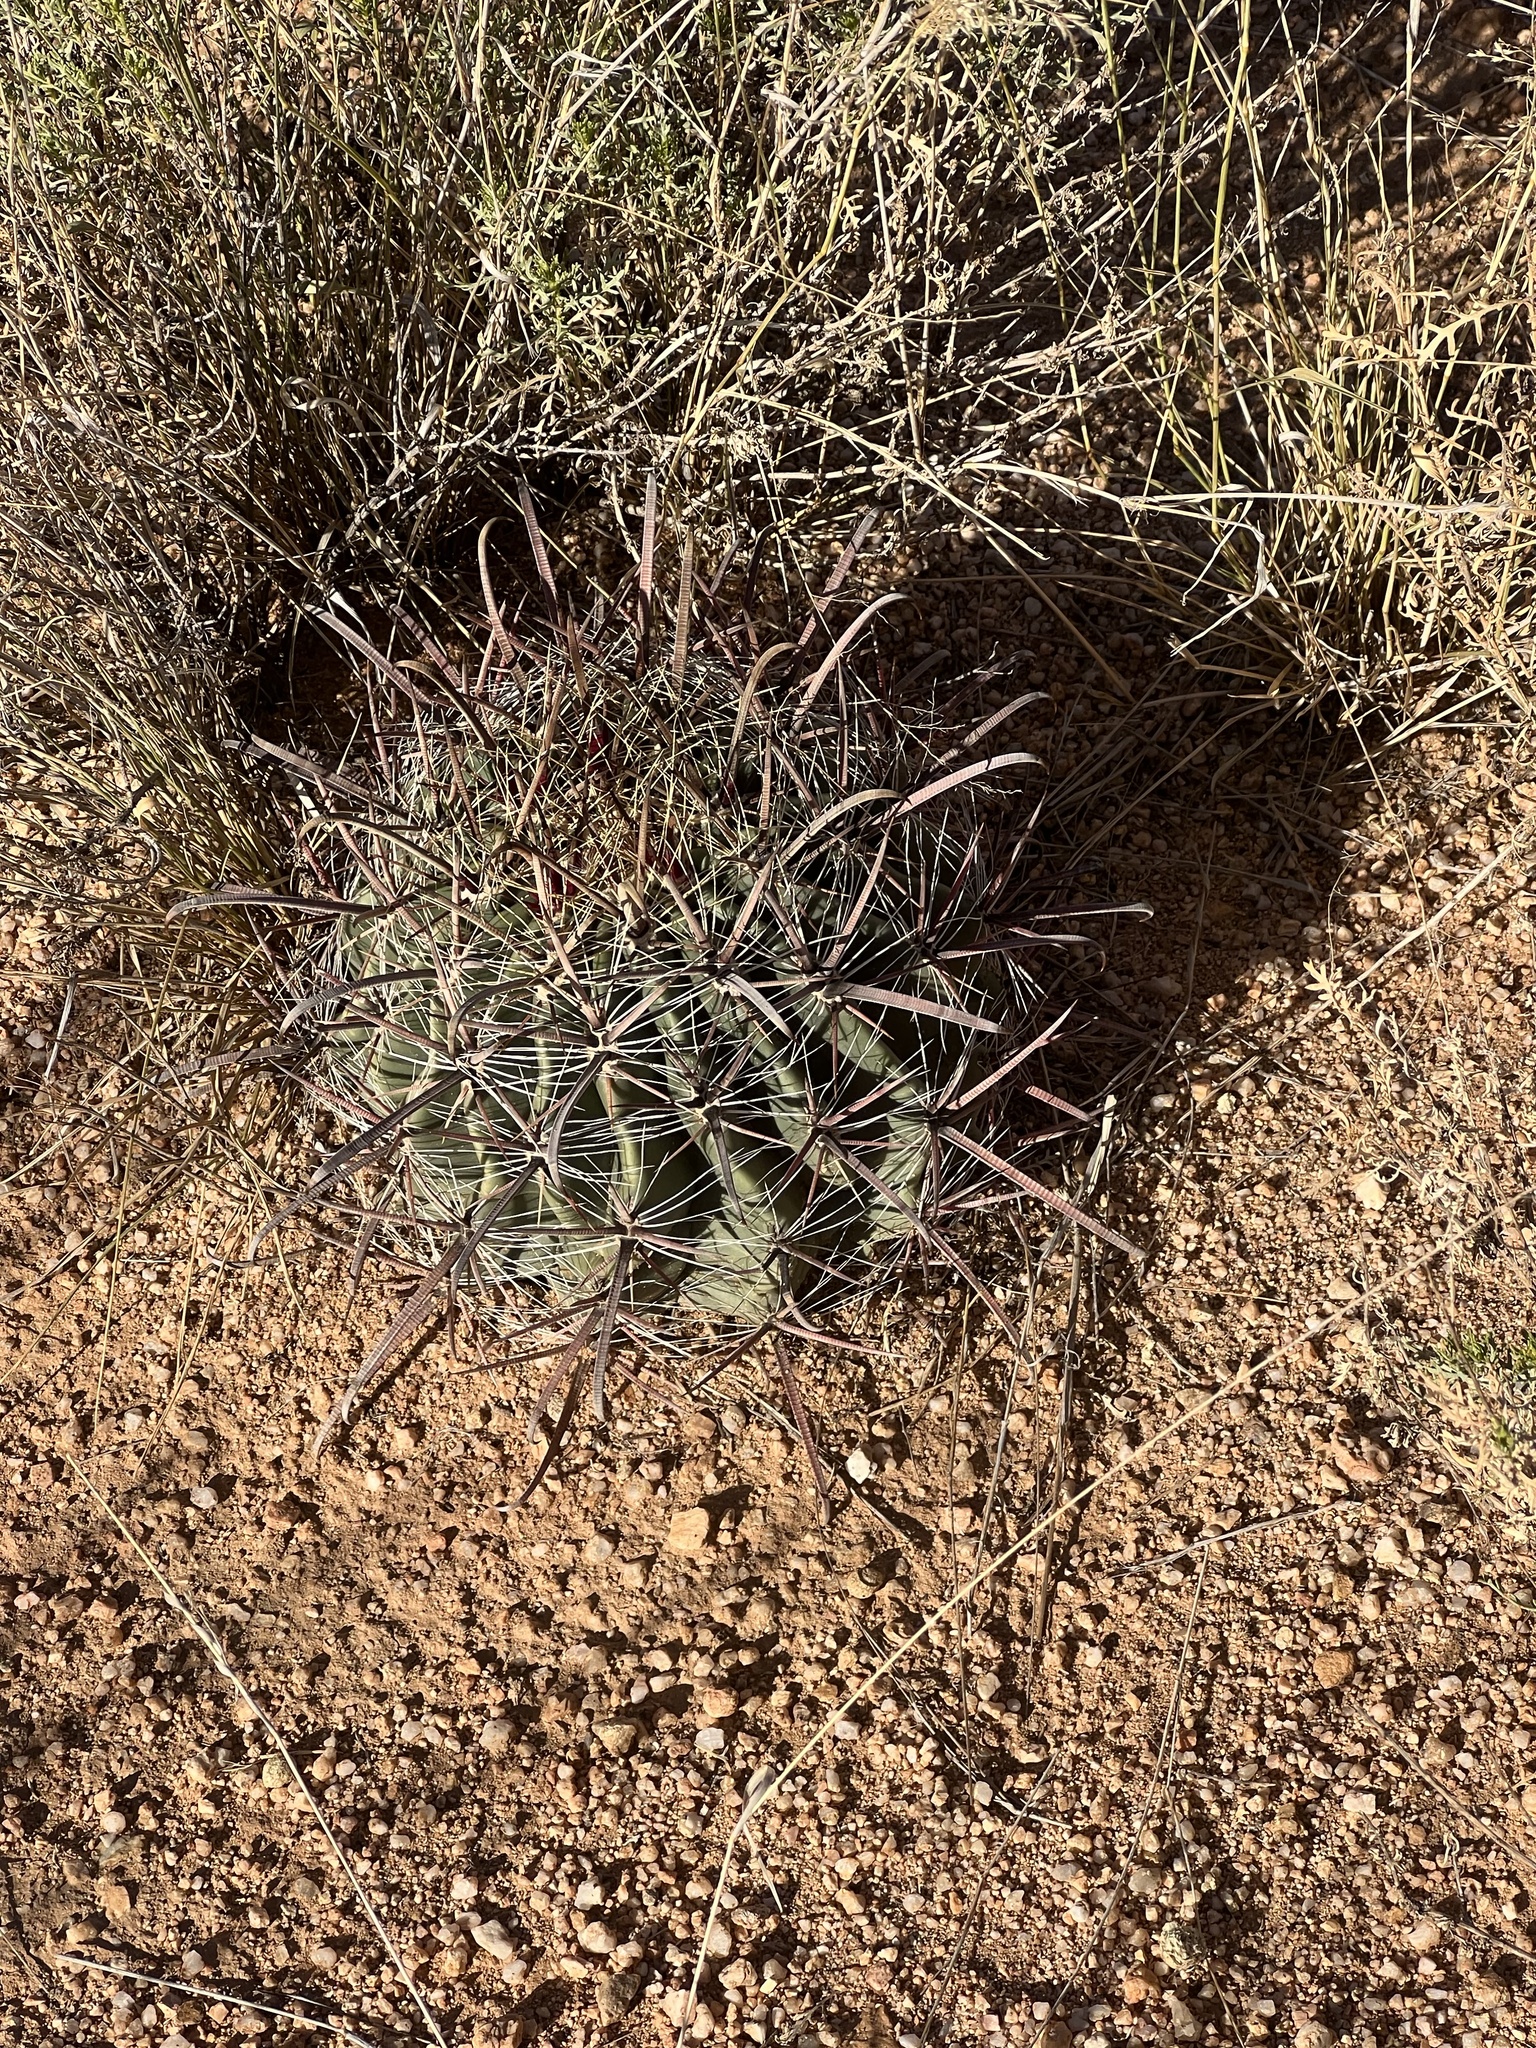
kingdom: Plantae
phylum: Tracheophyta
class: Magnoliopsida
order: Caryophyllales
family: Cactaceae
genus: Ferocactus
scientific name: Ferocactus wislizeni
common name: Candy barrel cactus
